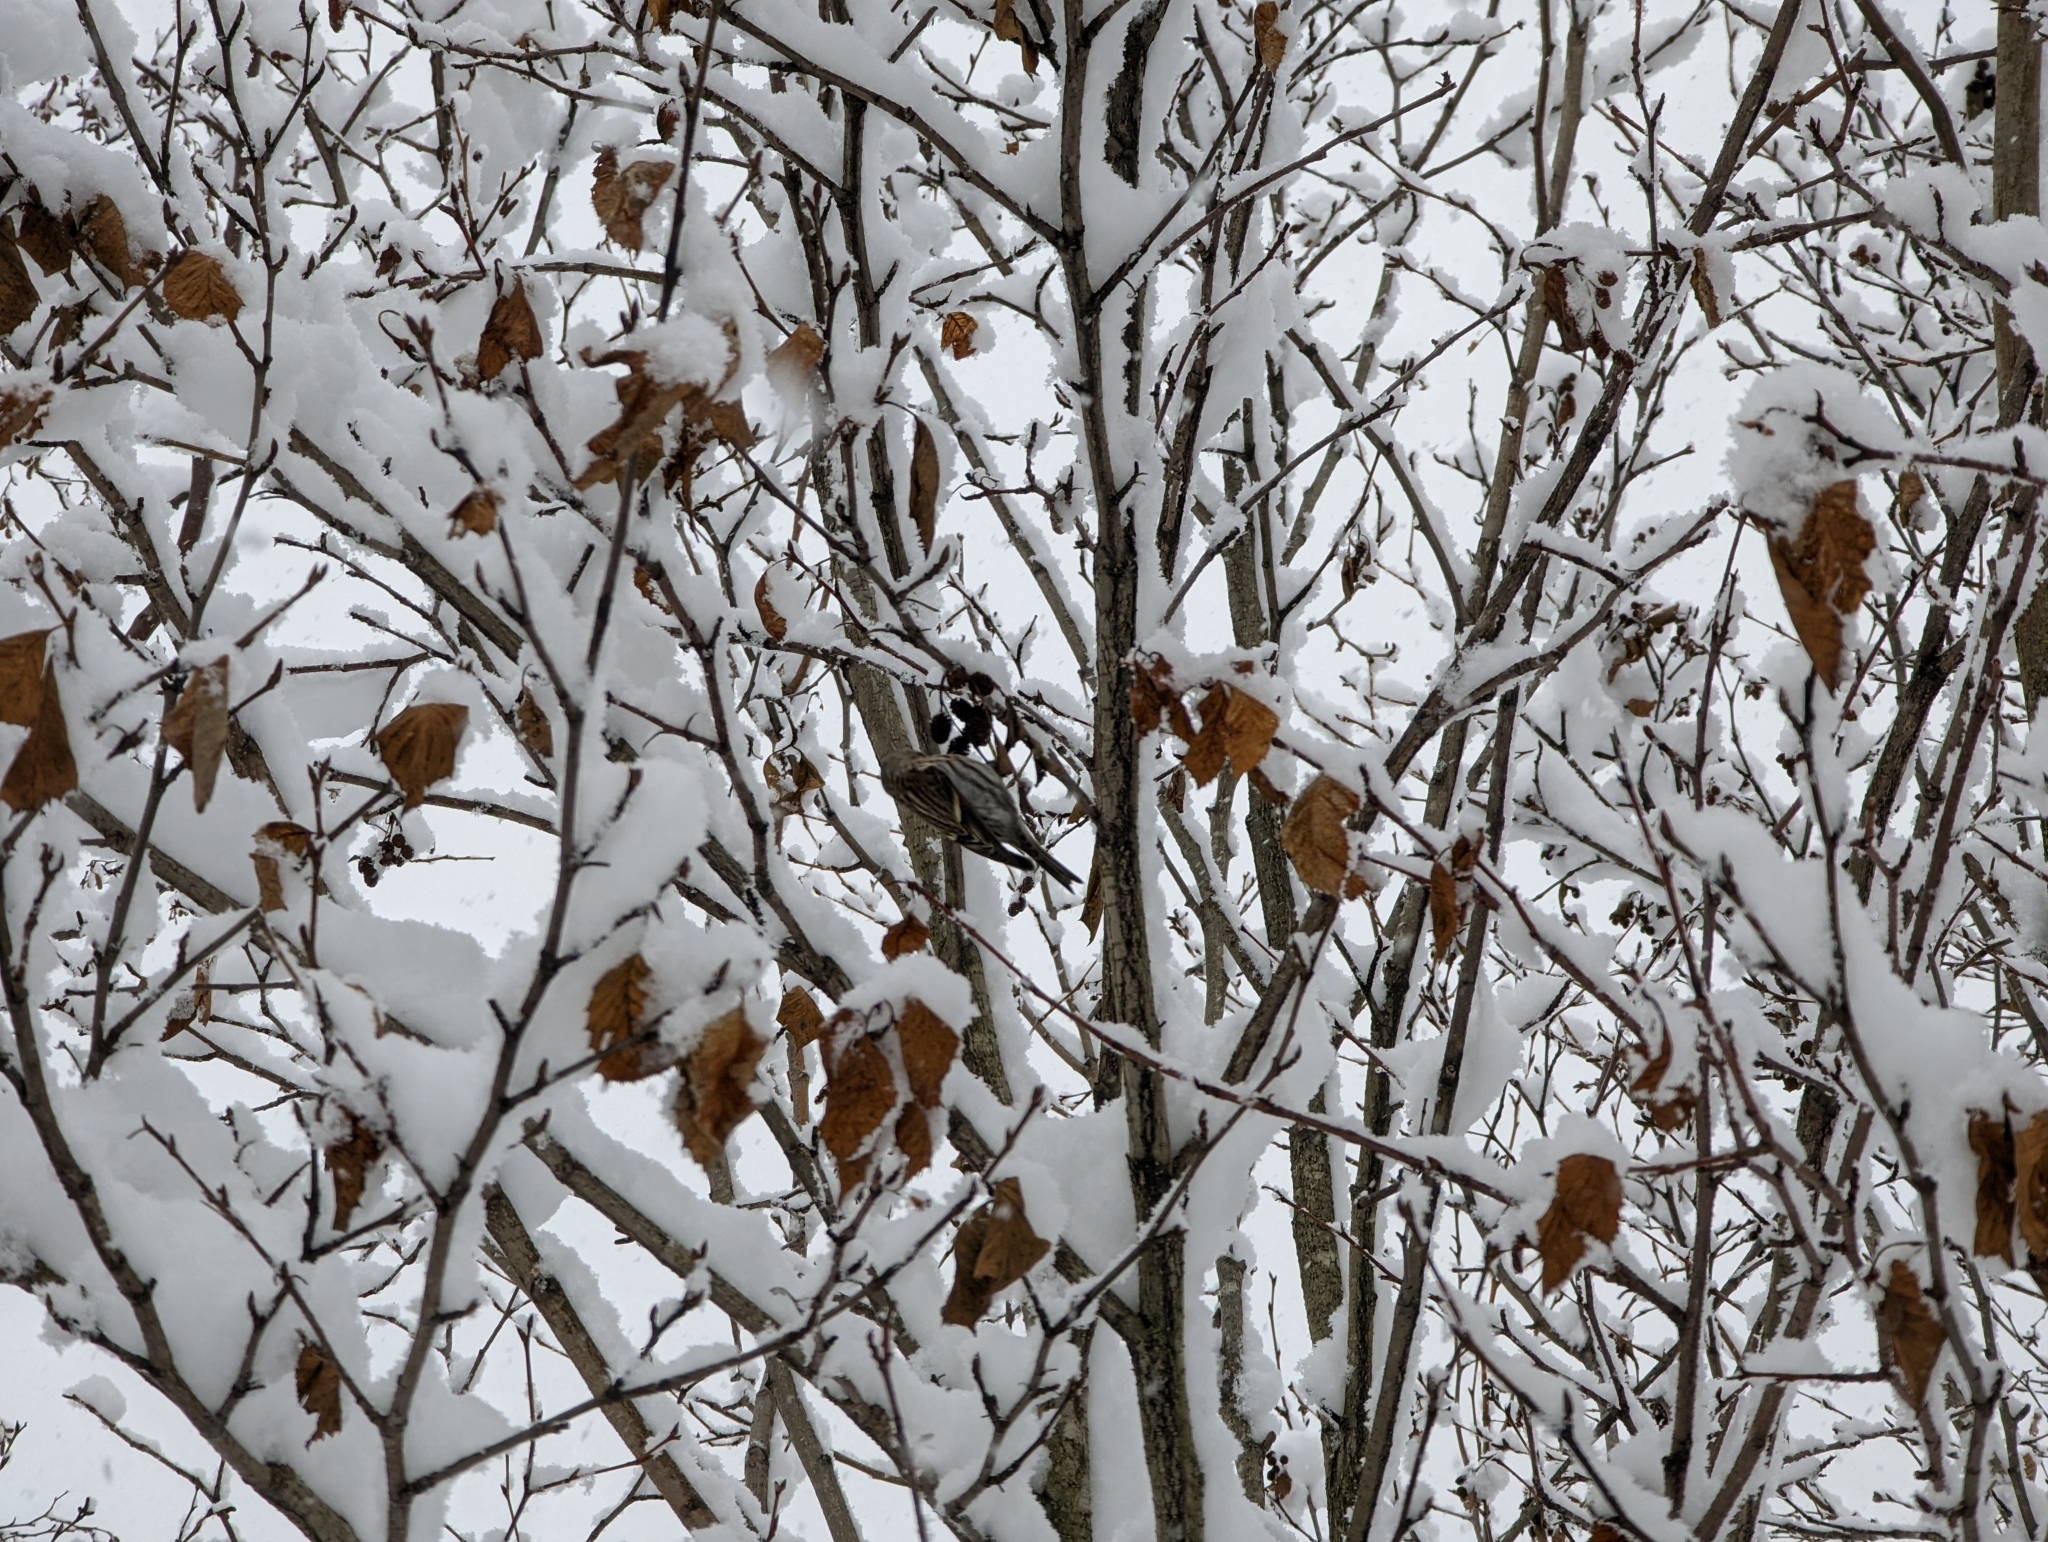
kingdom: Animalia
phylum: Chordata
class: Aves
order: Passeriformes
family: Fringillidae
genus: Acanthis
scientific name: Acanthis flammea
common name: Common redpoll
